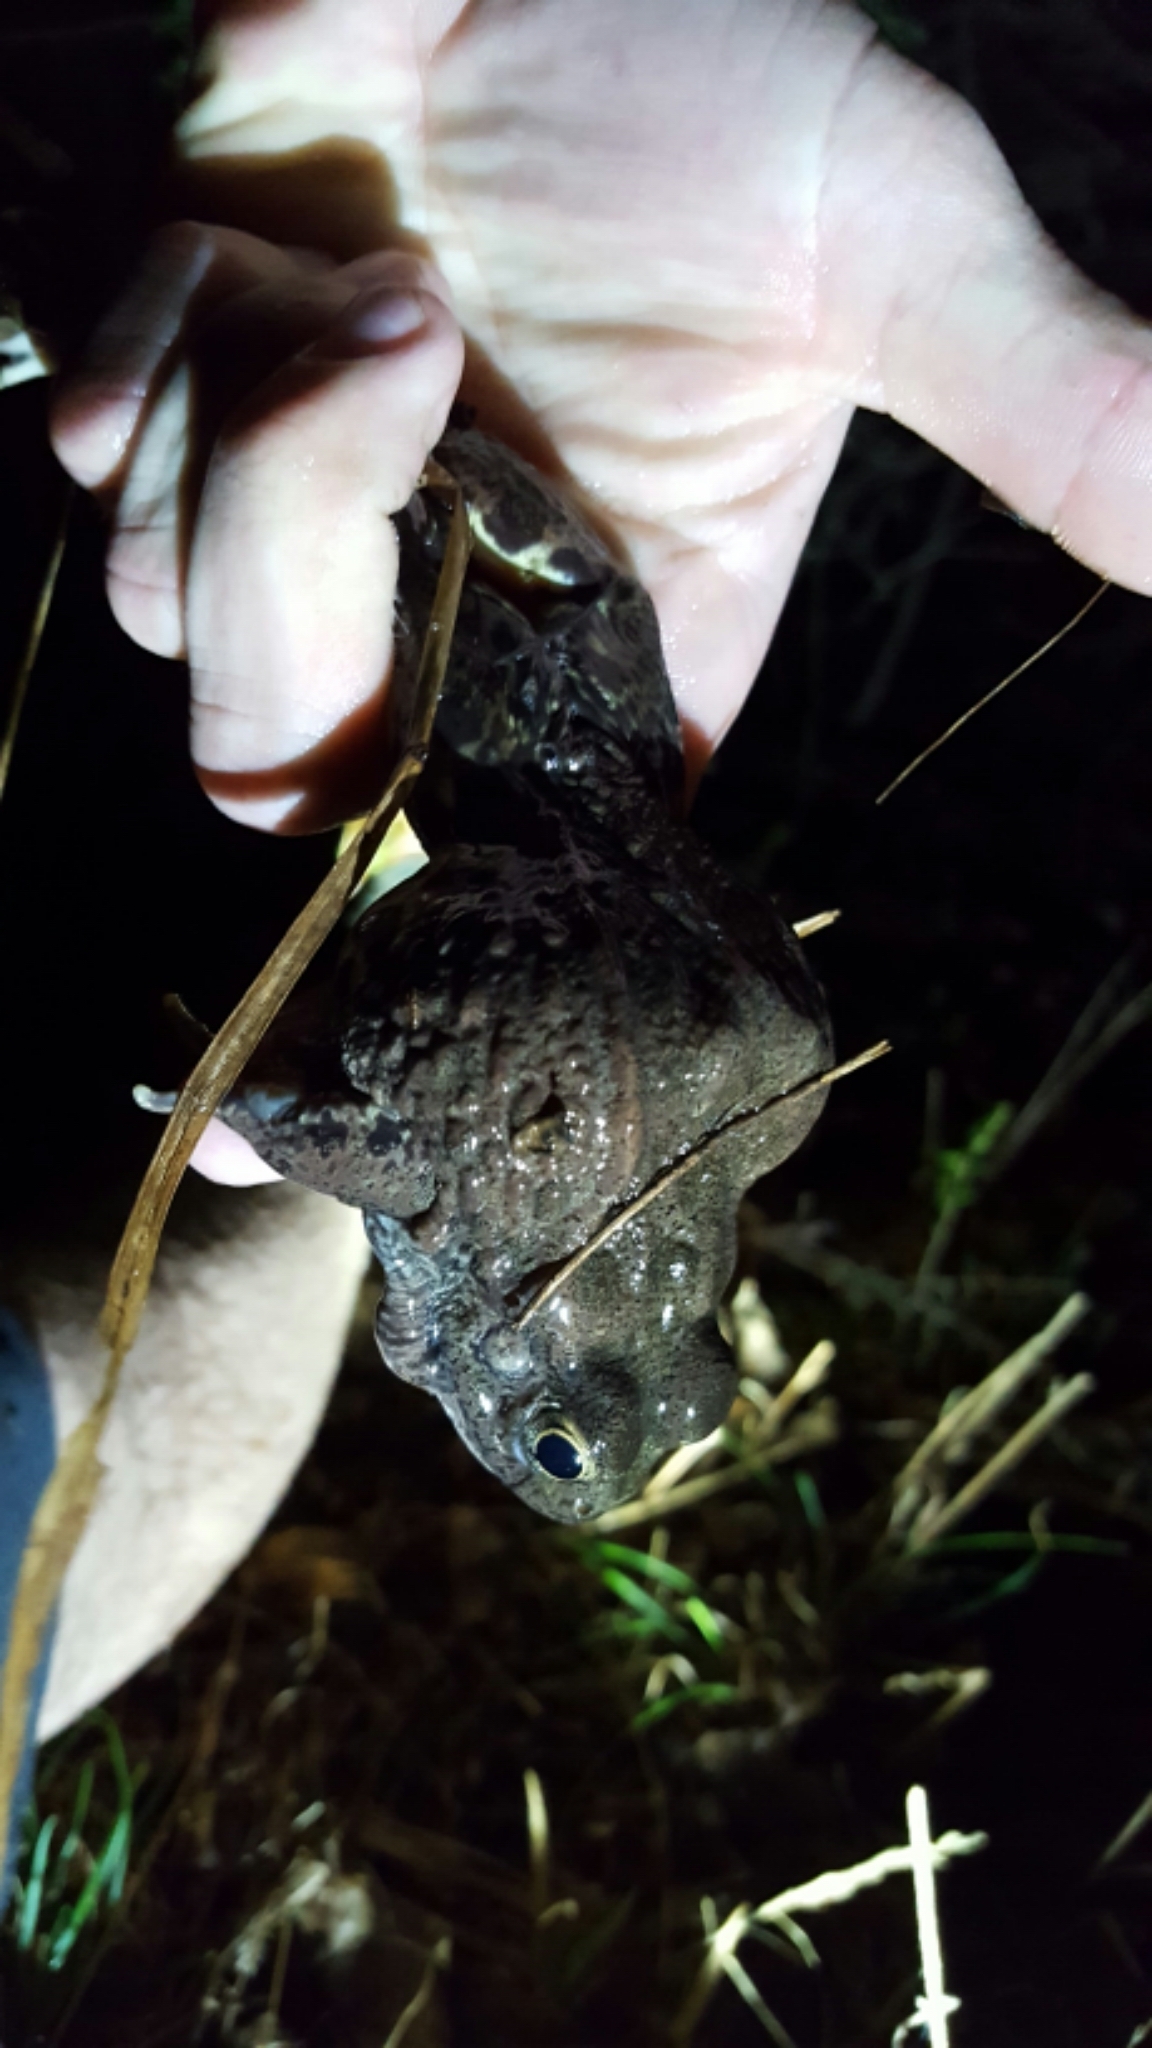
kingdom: Animalia
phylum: Chordata
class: Amphibia
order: Anura
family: Ranidae
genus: Lithobates
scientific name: Lithobates areolatus
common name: Crawfish frog
